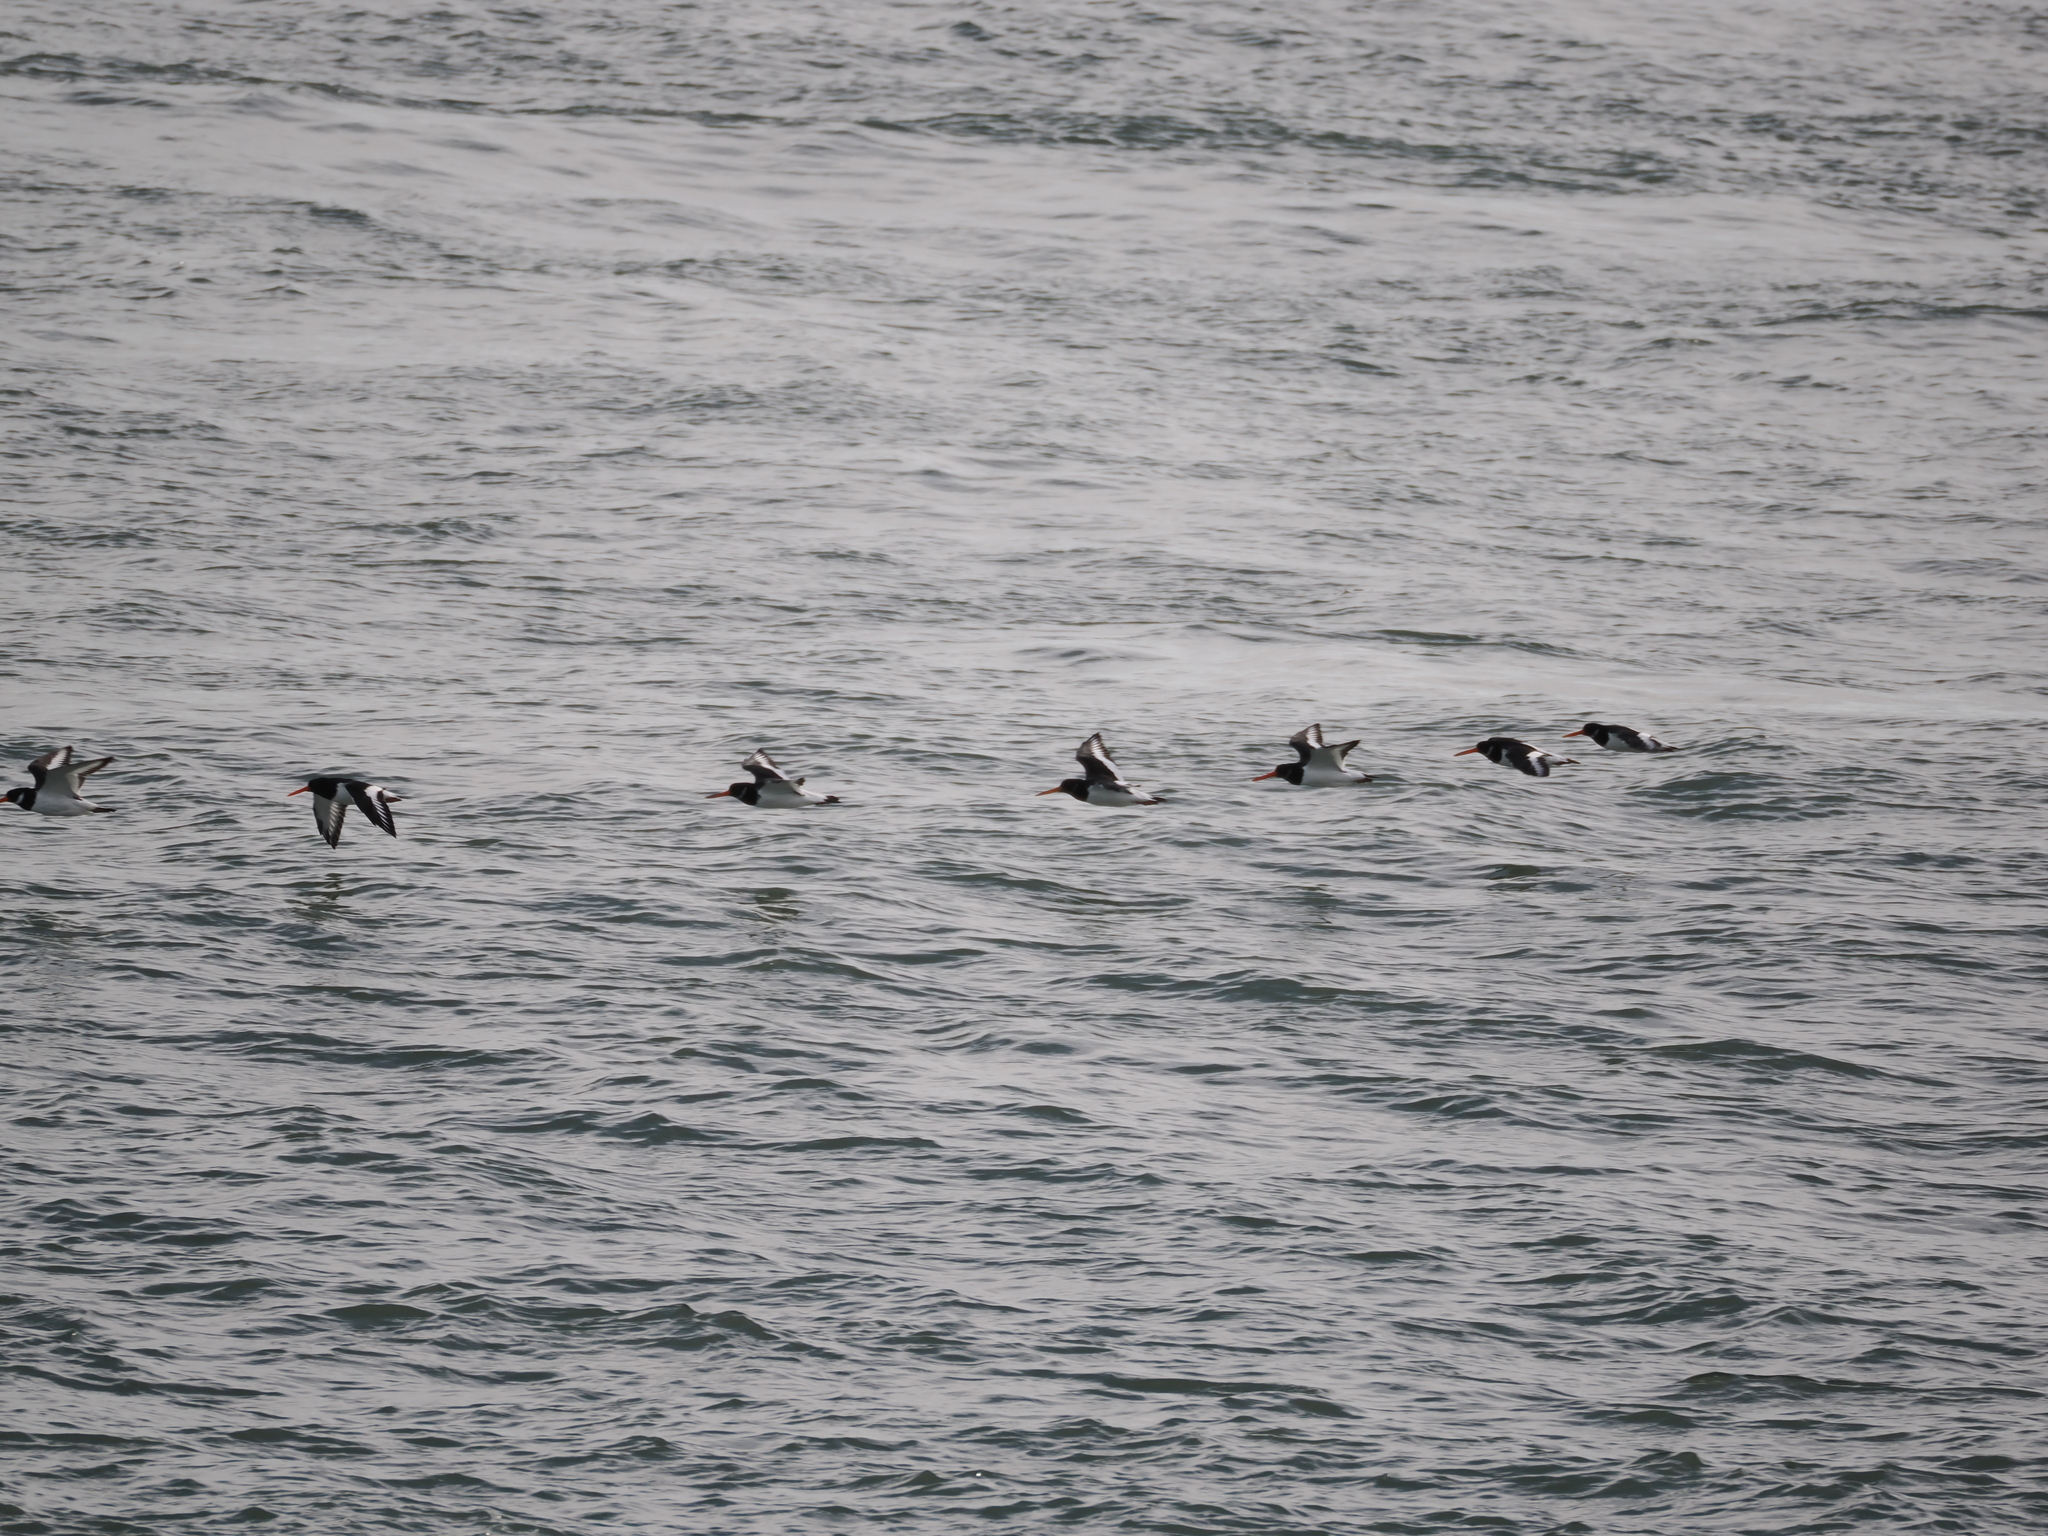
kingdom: Animalia
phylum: Chordata
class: Aves
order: Charadriiformes
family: Haematopodidae
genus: Haematopus
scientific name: Haematopus ostralegus
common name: Eurasian oystercatcher
